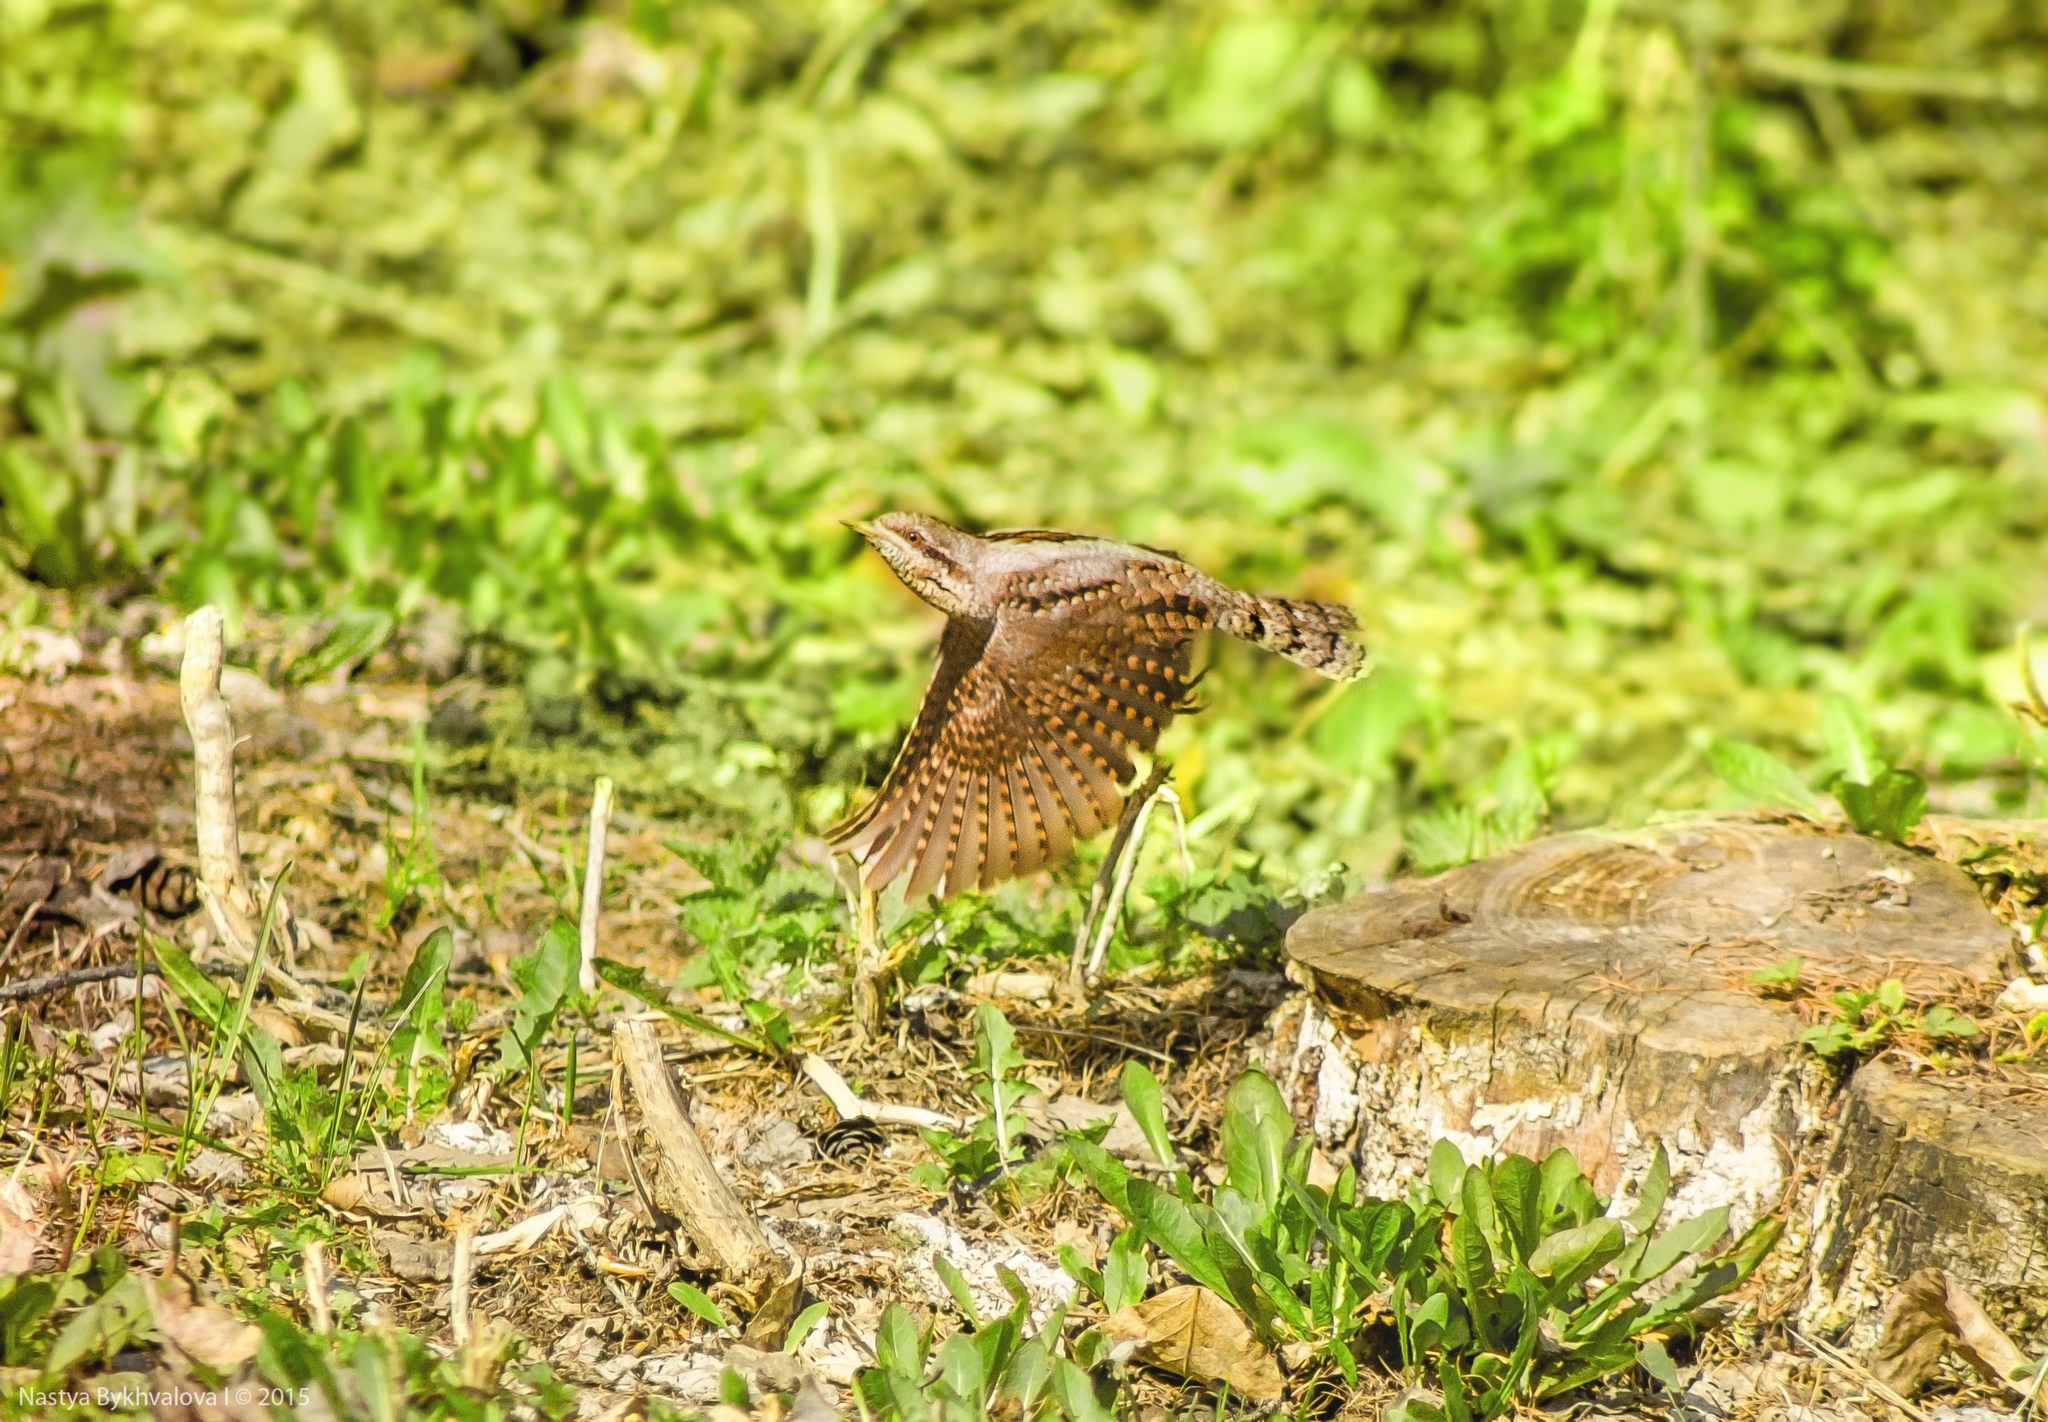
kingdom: Animalia
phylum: Chordata
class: Aves
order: Piciformes
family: Picidae
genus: Jynx
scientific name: Jynx torquilla
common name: Eurasian wryneck
